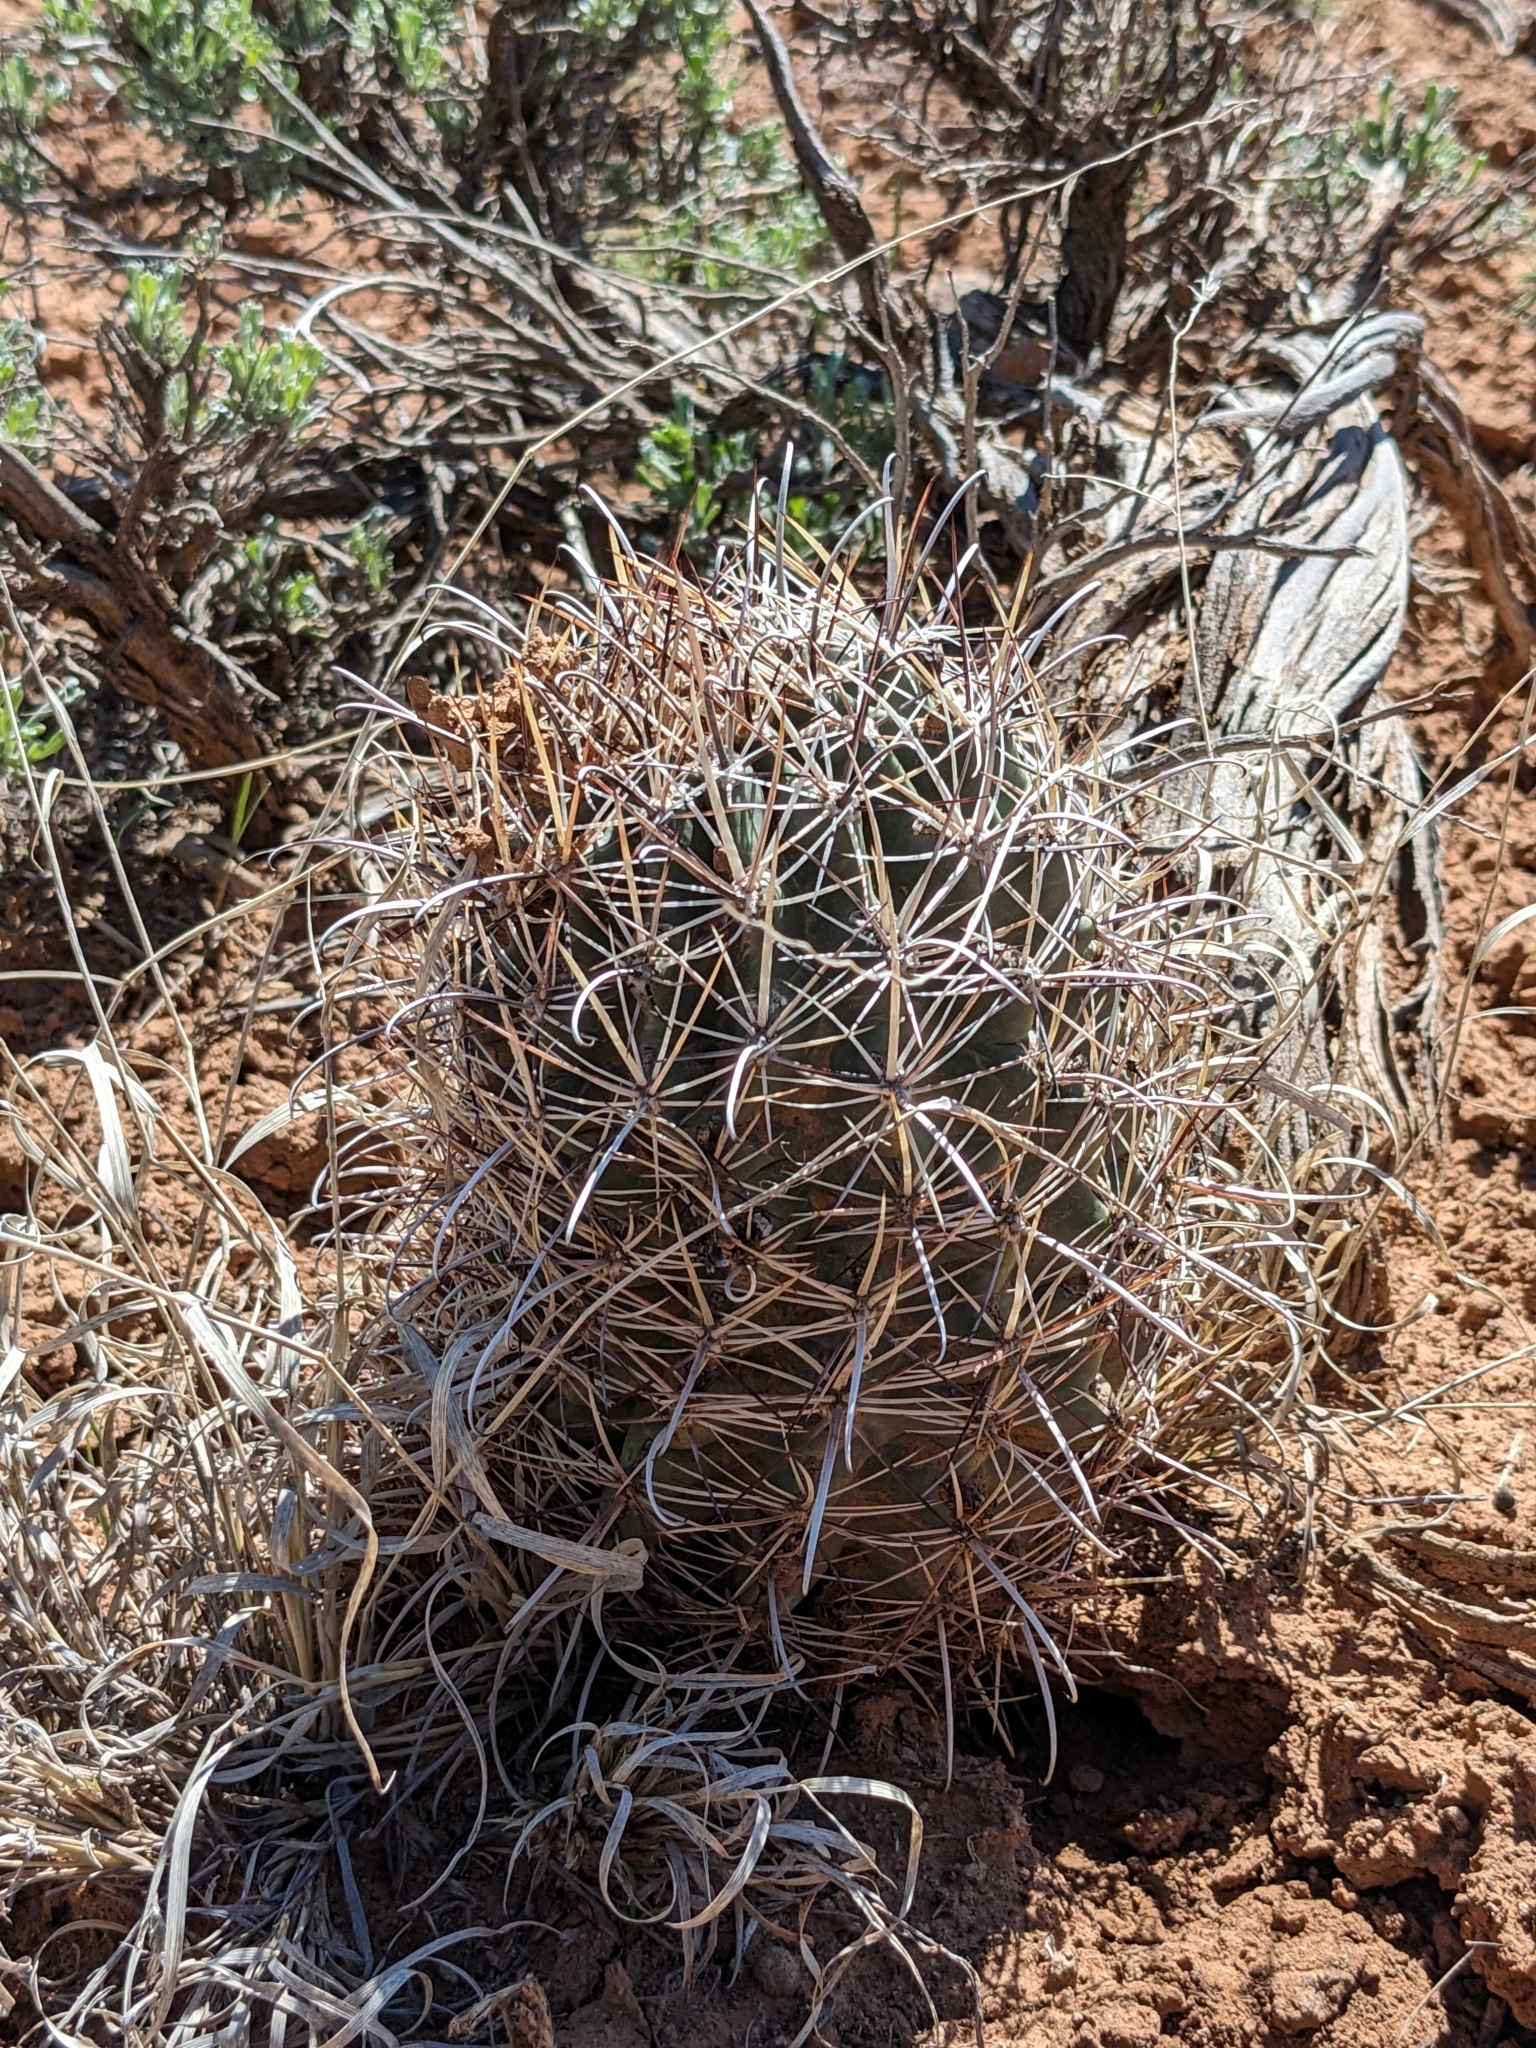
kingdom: Plantae
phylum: Tracheophyta
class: Magnoliopsida
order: Caryophyllales
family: Cactaceae
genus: Sclerocactus
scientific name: Sclerocactus parviflorus
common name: Small-flower fishhook cactus
